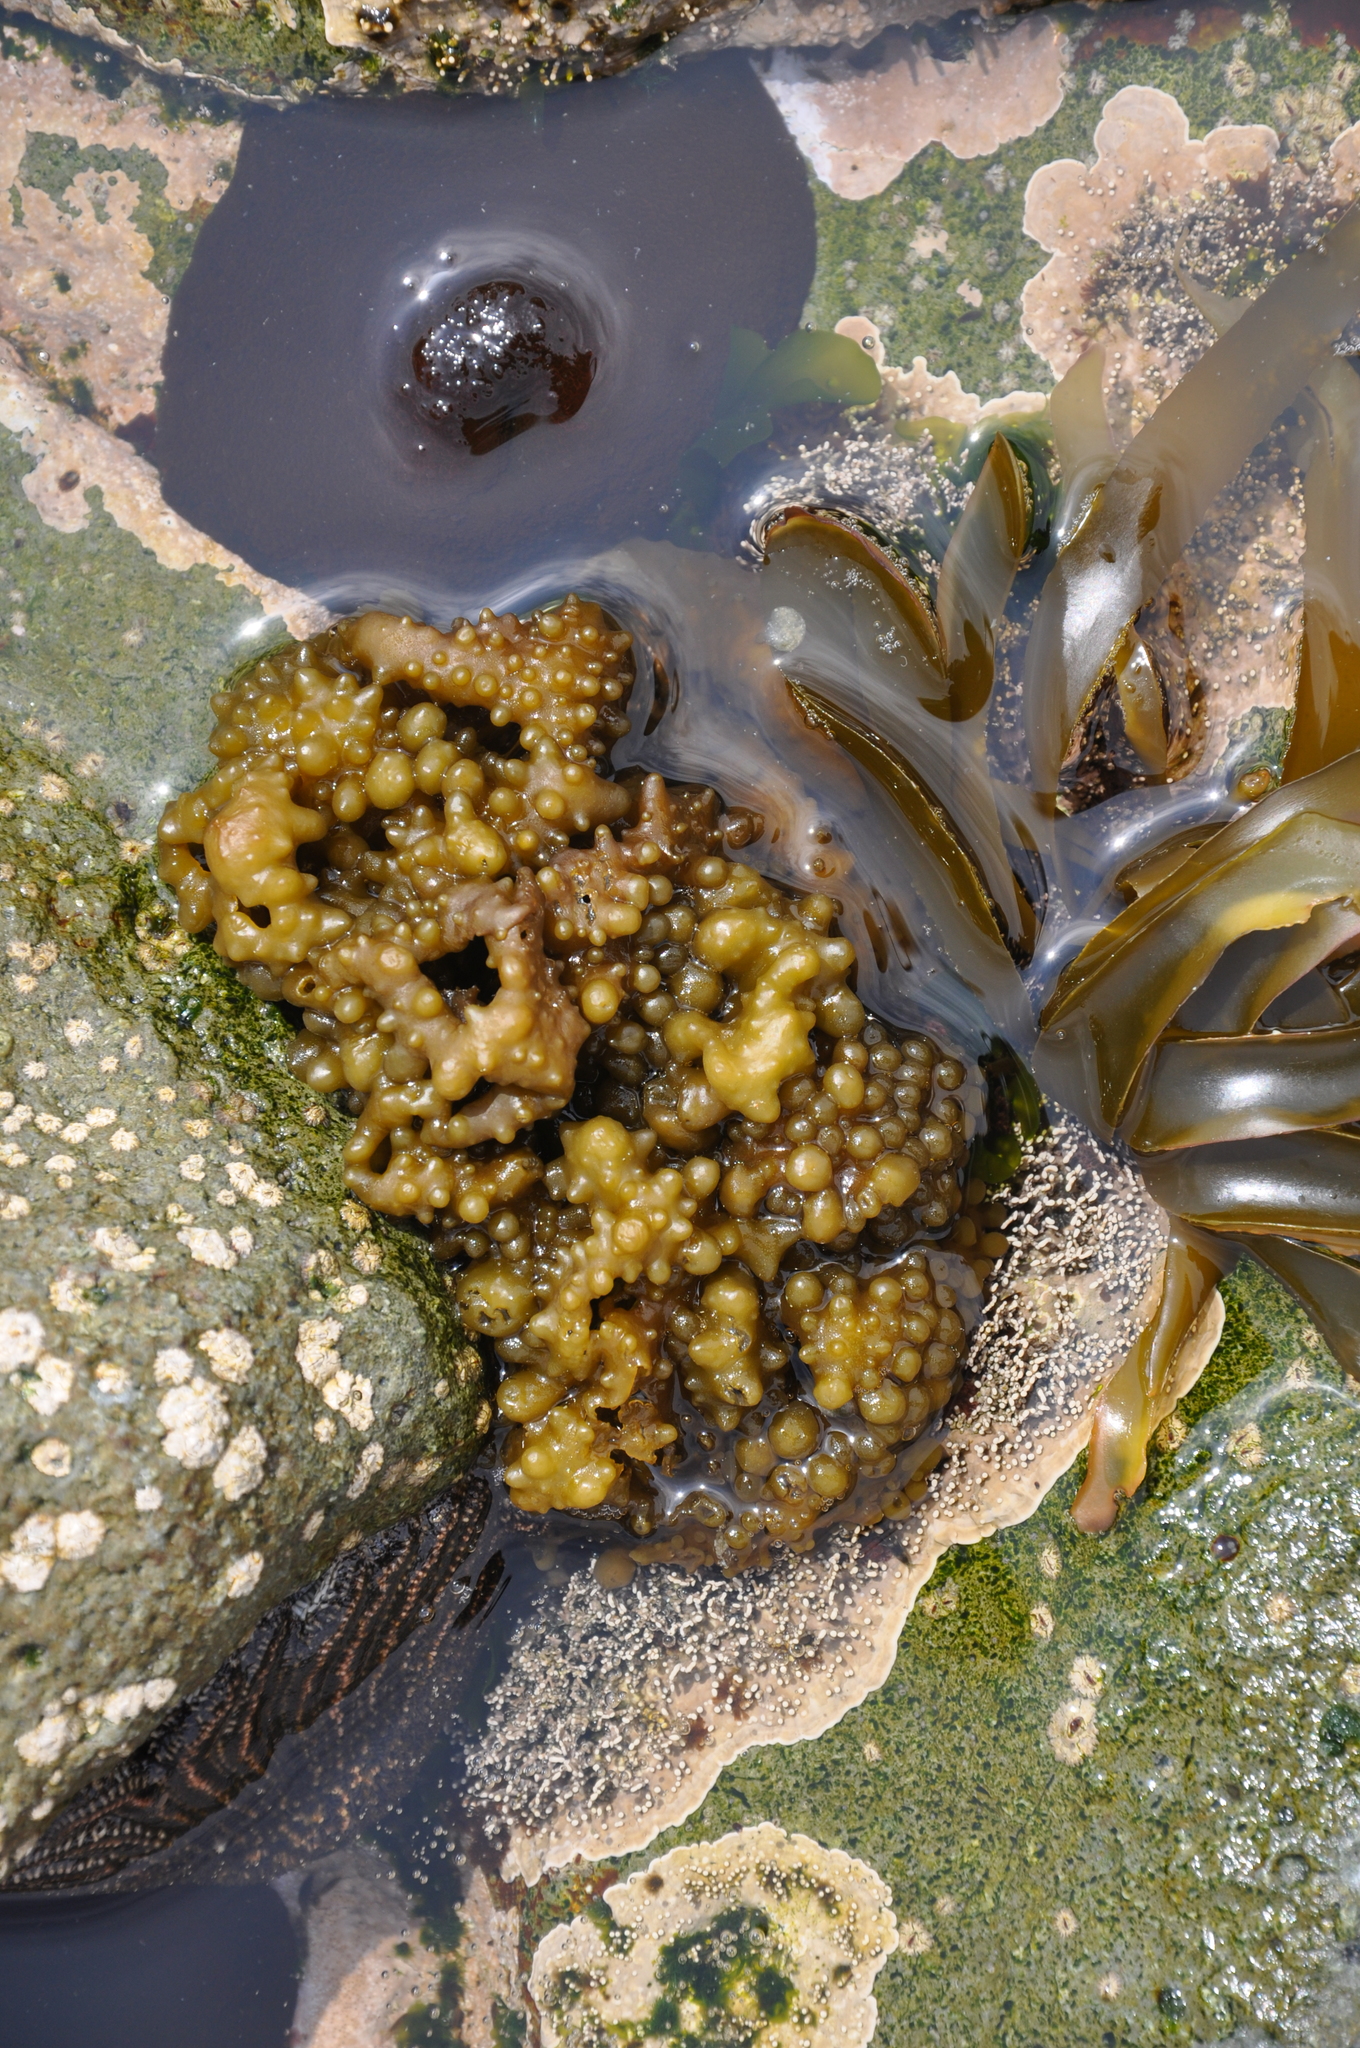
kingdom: Chromista
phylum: Ochrophyta
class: Phaeophyceae
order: Scytosiphonales
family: Scytosiphonaceae
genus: Colpomenia
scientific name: Colpomenia
